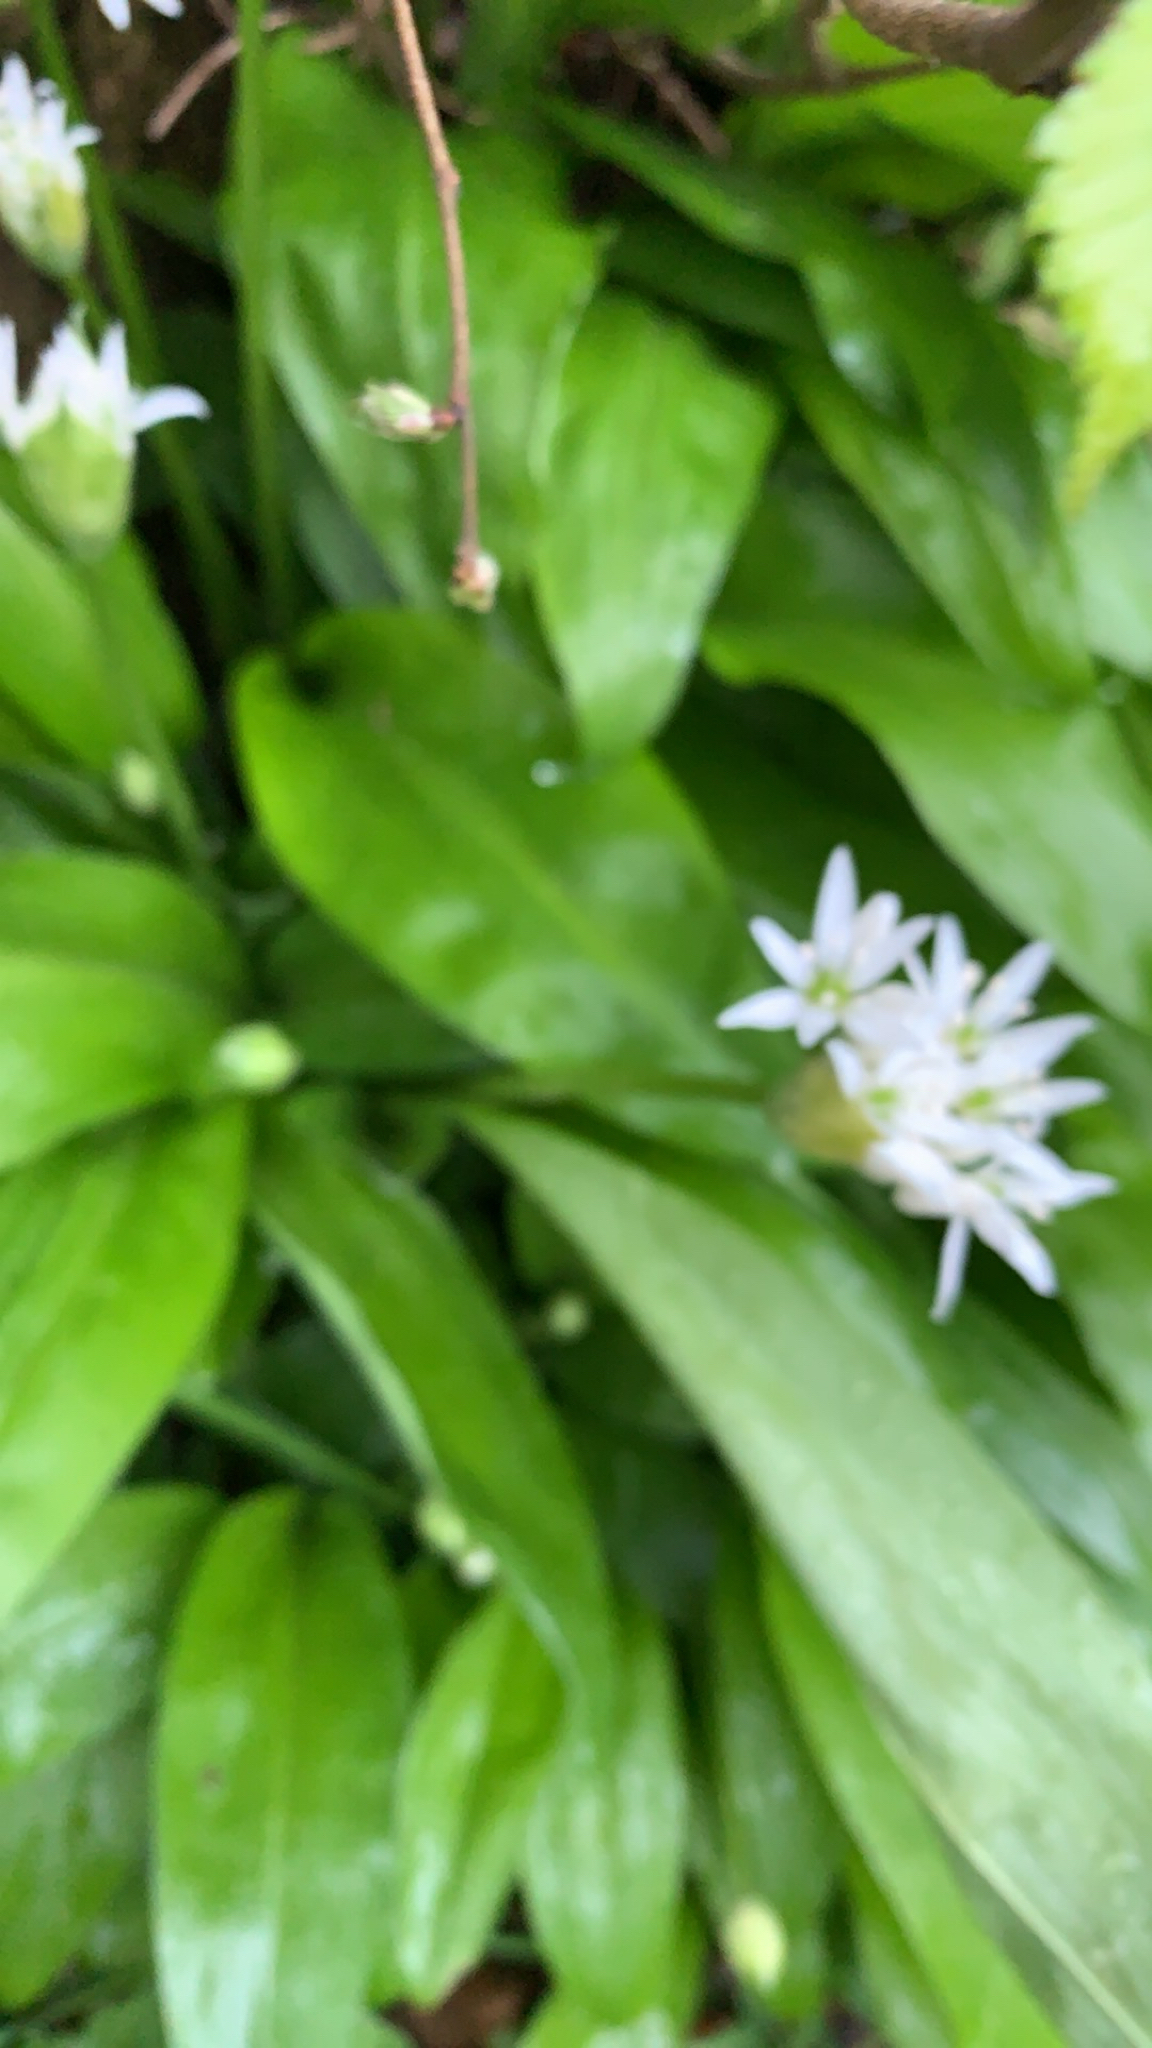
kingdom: Plantae
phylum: Tracheophyta
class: Liliopsida
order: Asparagales
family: Amaryllidaceae
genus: Allium
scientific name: Allium ursinum
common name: Ramsons
